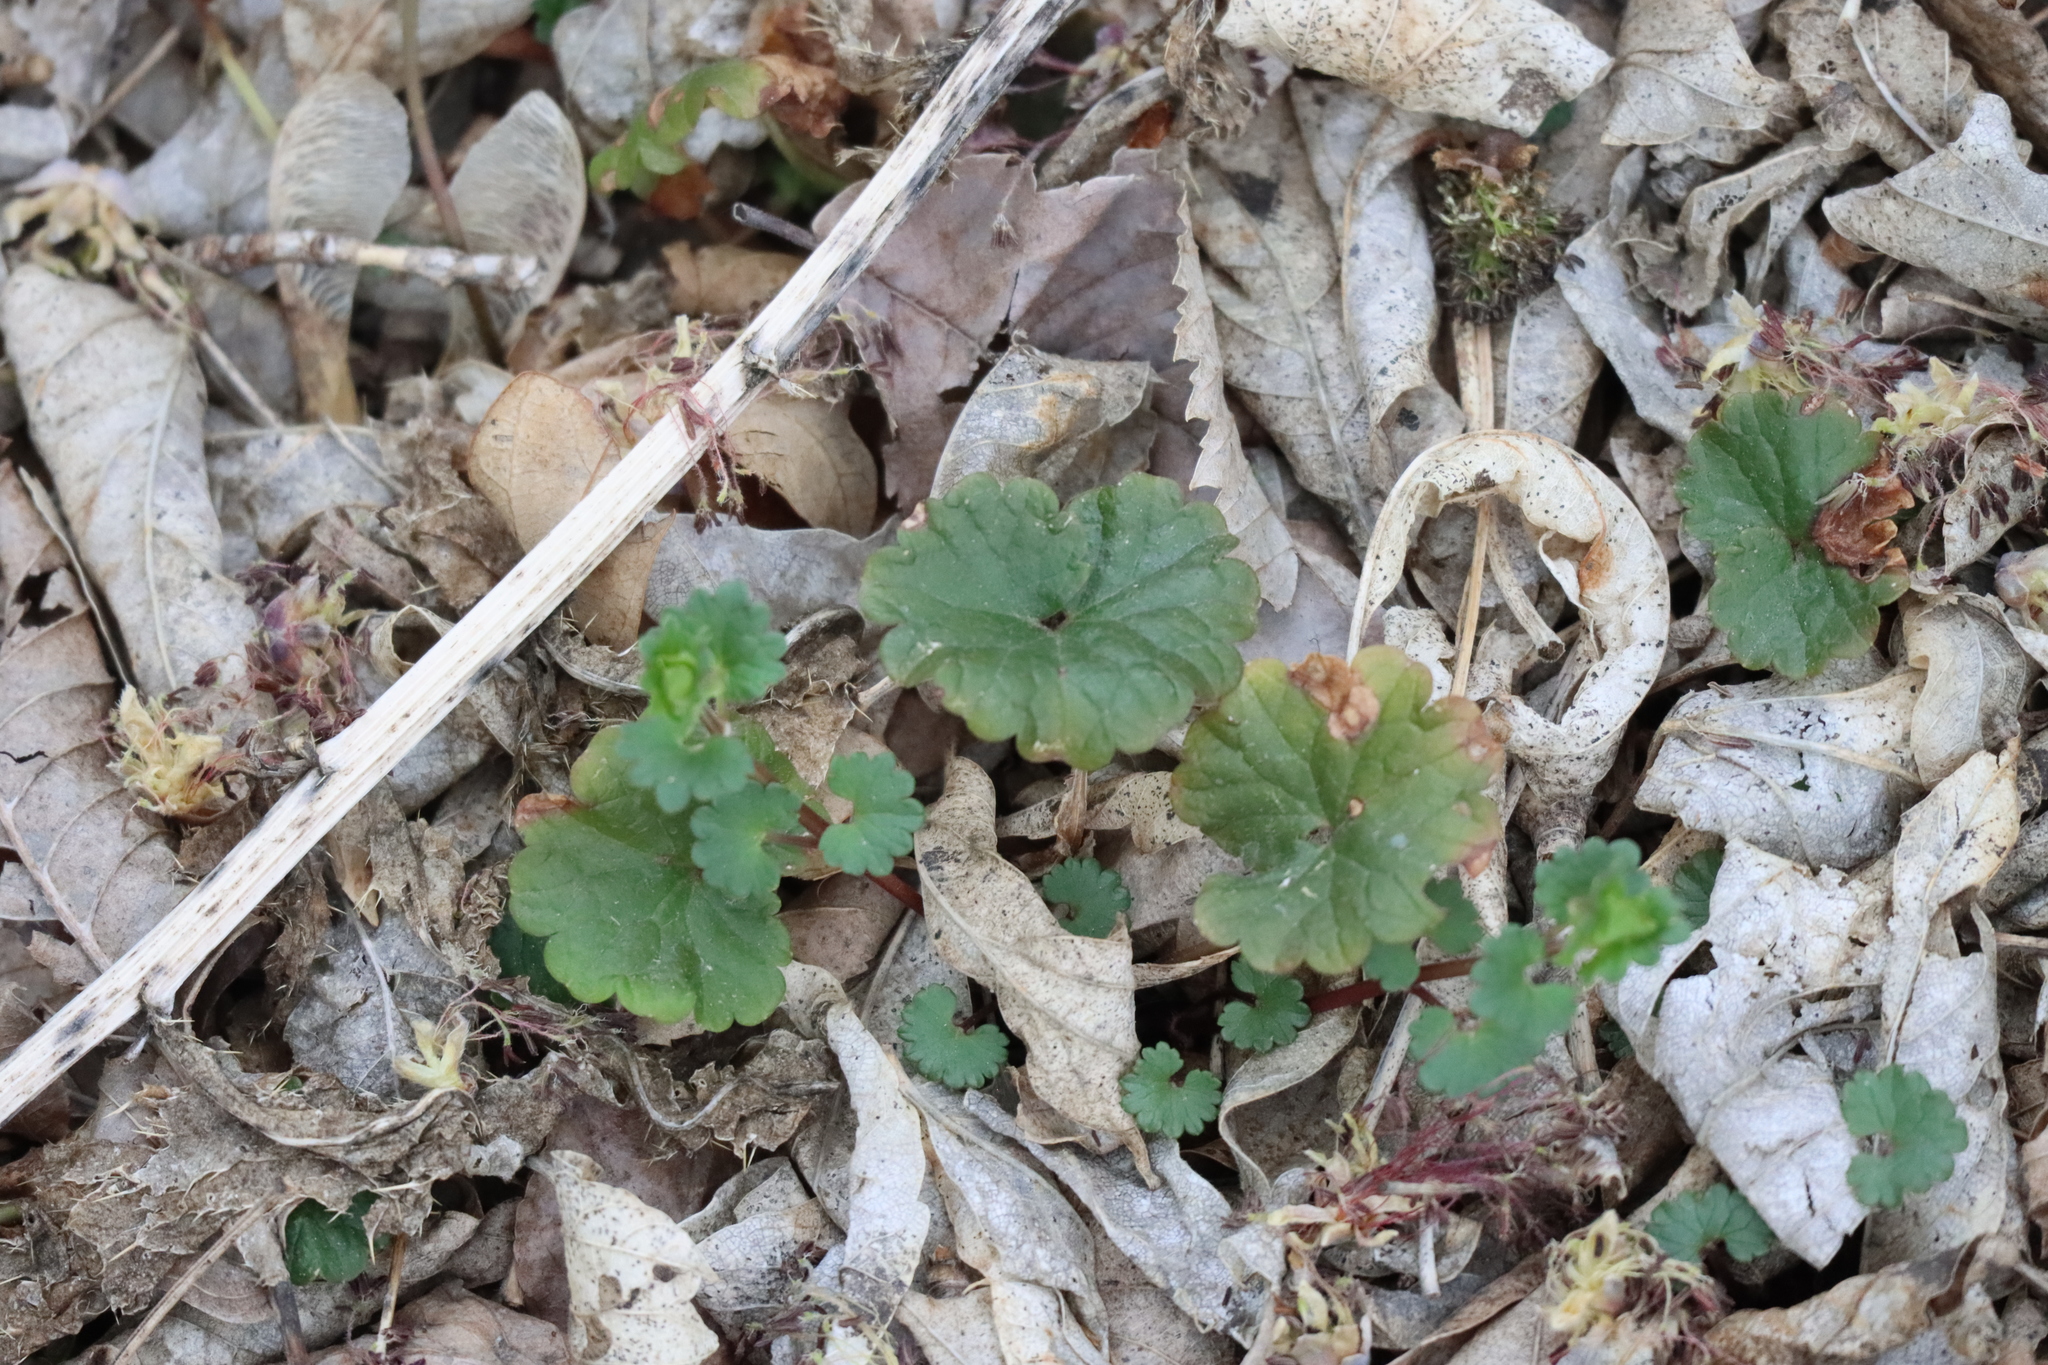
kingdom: Plantae
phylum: Tracheophyta
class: Magnoliopsida
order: Lamiales
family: Lamiaceae
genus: Glechoma
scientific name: Glechoma hederacea
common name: Ground ivy
